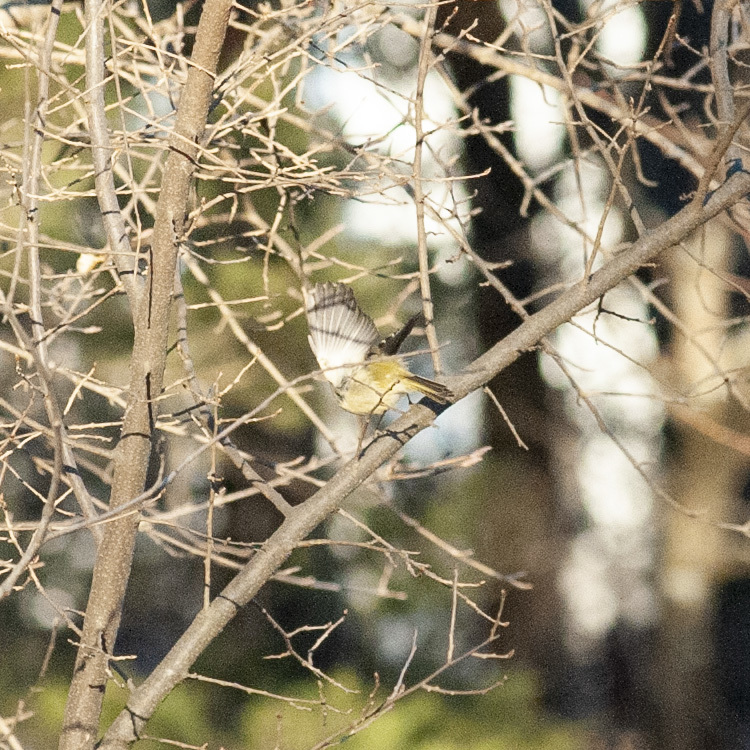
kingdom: Animalia
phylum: Chordata
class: Aves
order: Passeriformes
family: Regulidae
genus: Regulus
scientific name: Regulus calendula
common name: Ruby-crowned kinglet
